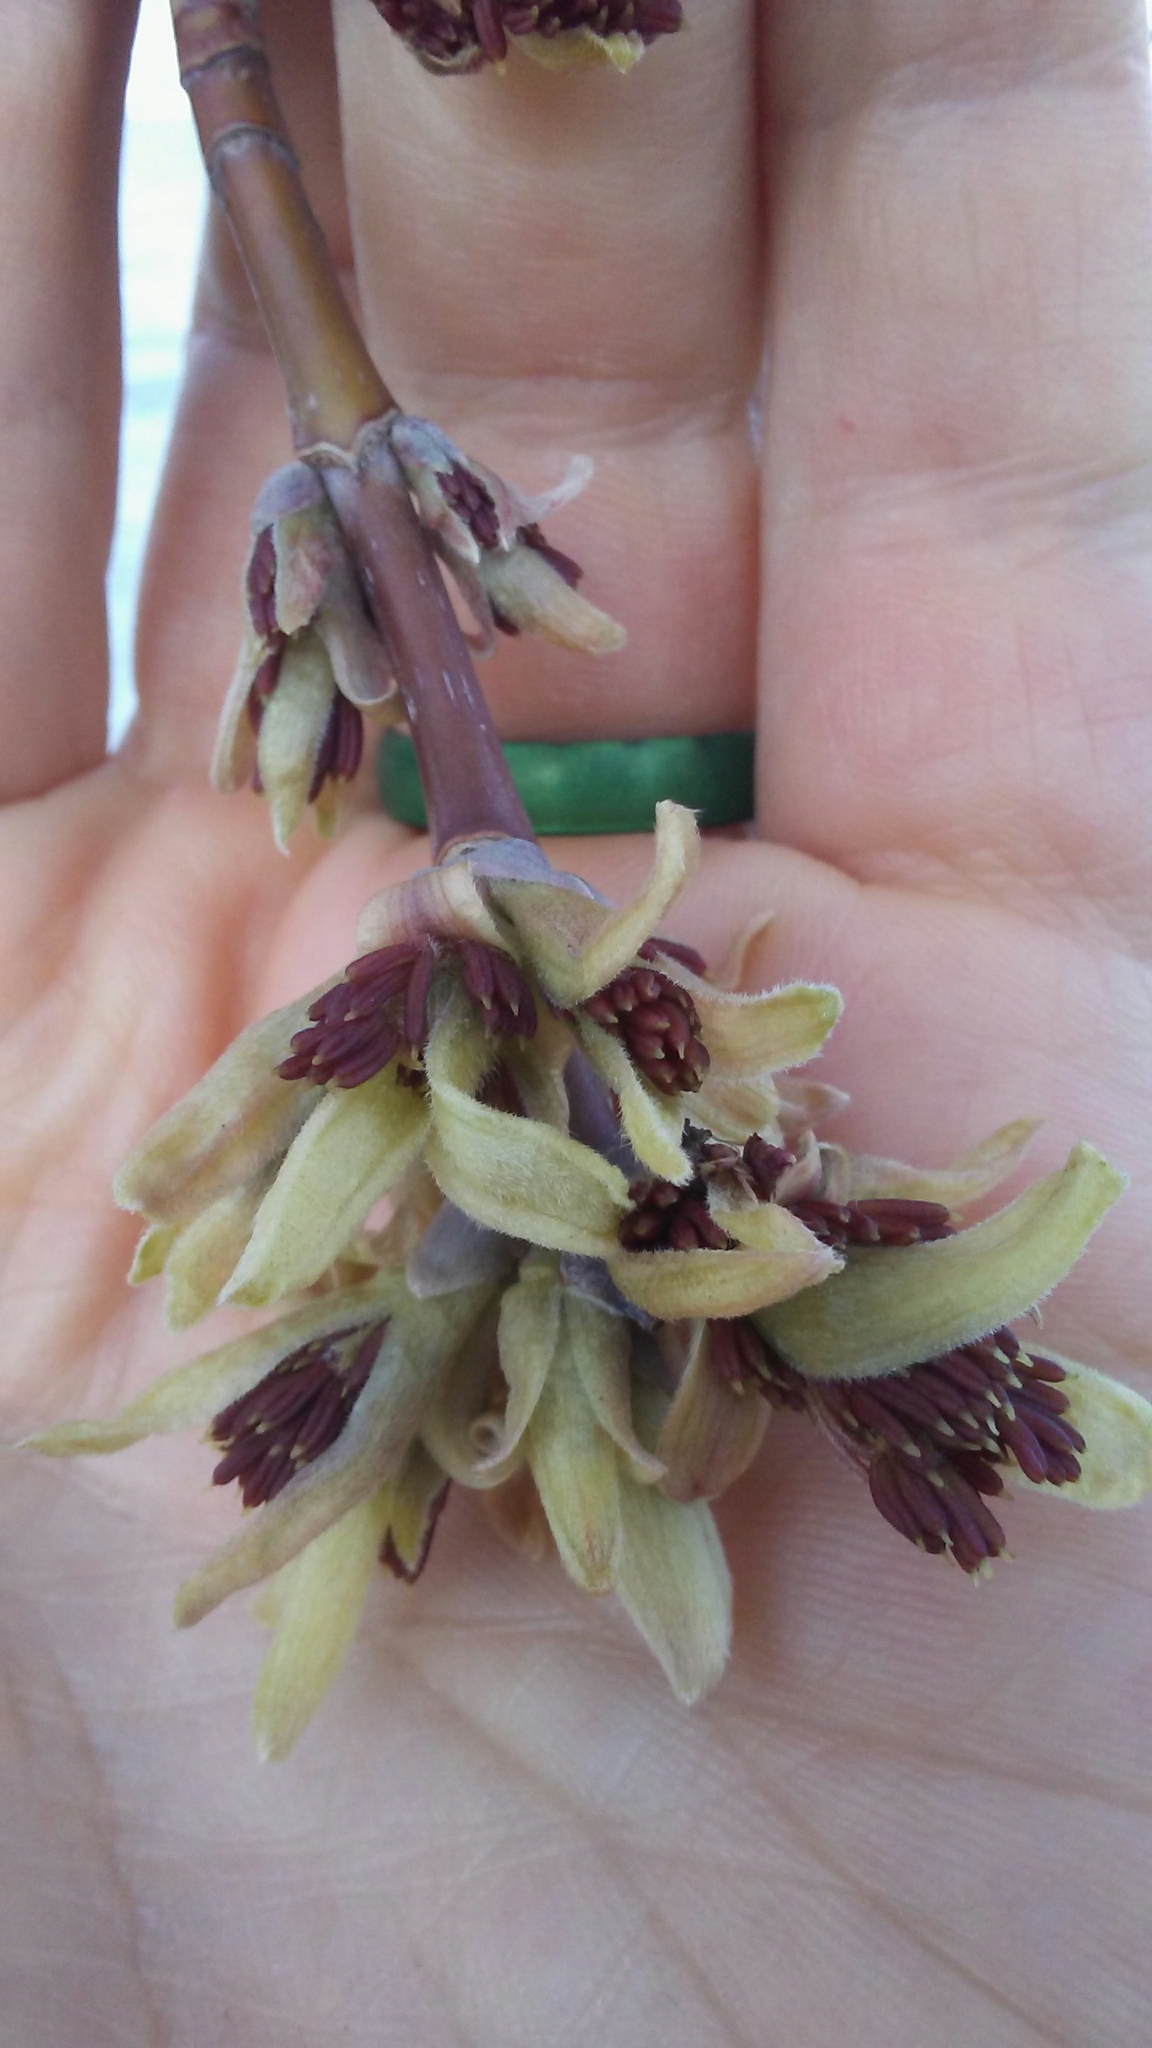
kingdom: Plantae
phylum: Tracheophyta
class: Magnoliopsida
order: Sapindales
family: Sapindaceae
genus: Acer
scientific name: Acer negundo
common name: Ashleaf maple
